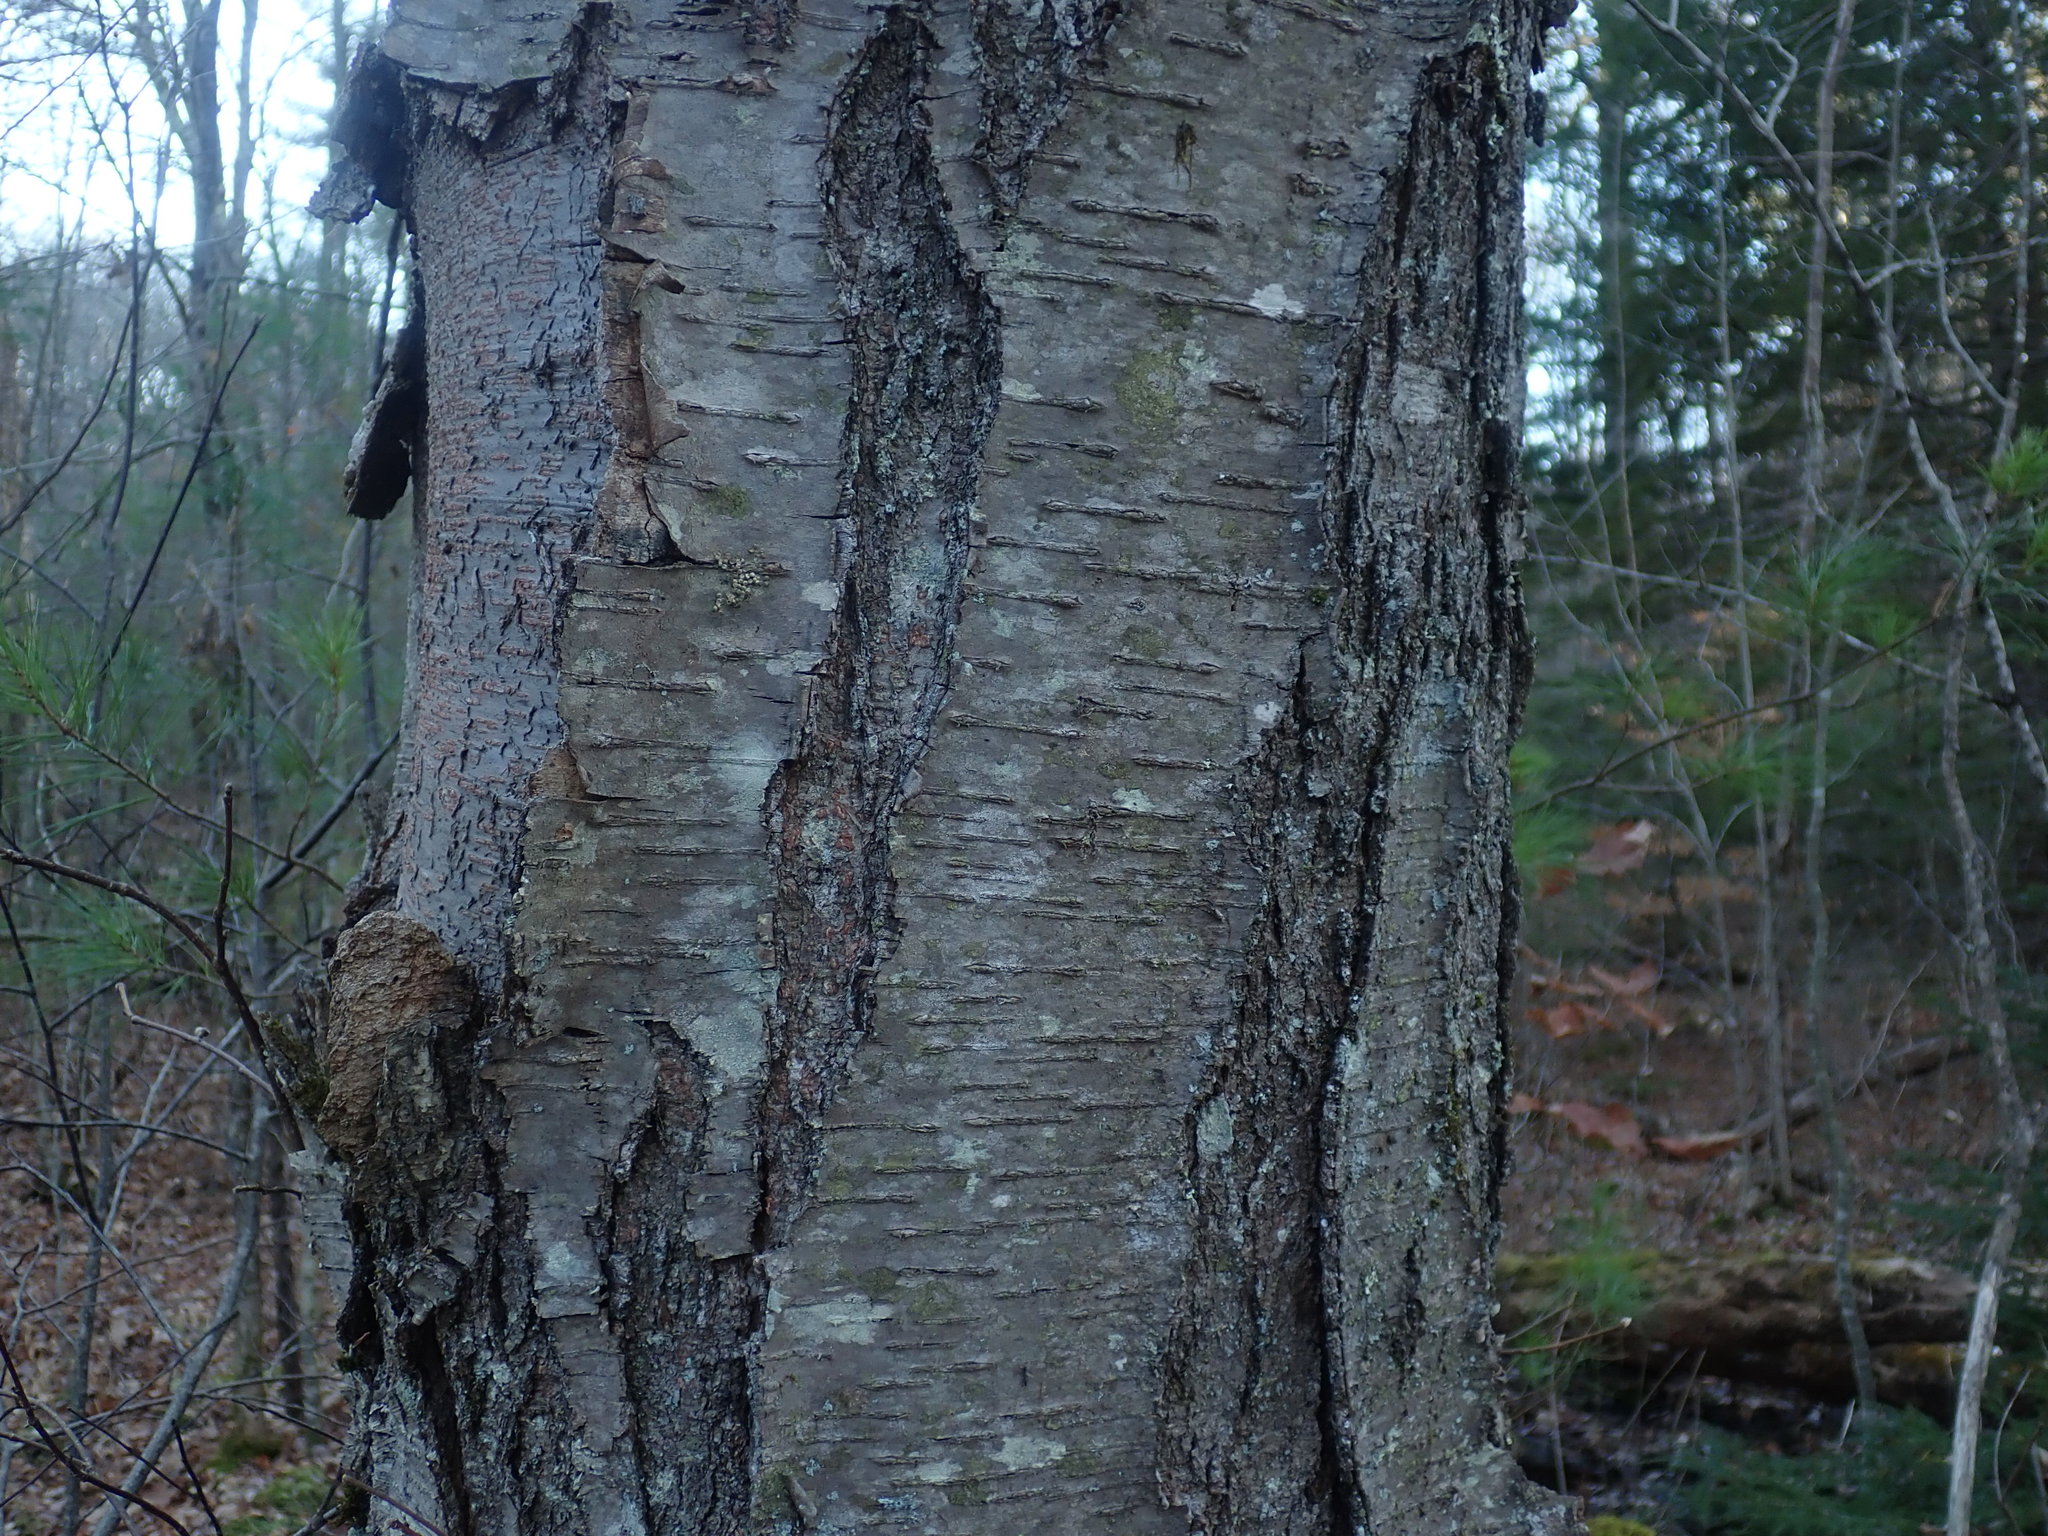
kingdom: Plantae
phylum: Tracheophyta
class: Magnoliopsida
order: Fagales
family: Betulaceae
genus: Betula
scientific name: Betula lenta
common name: Black birch
